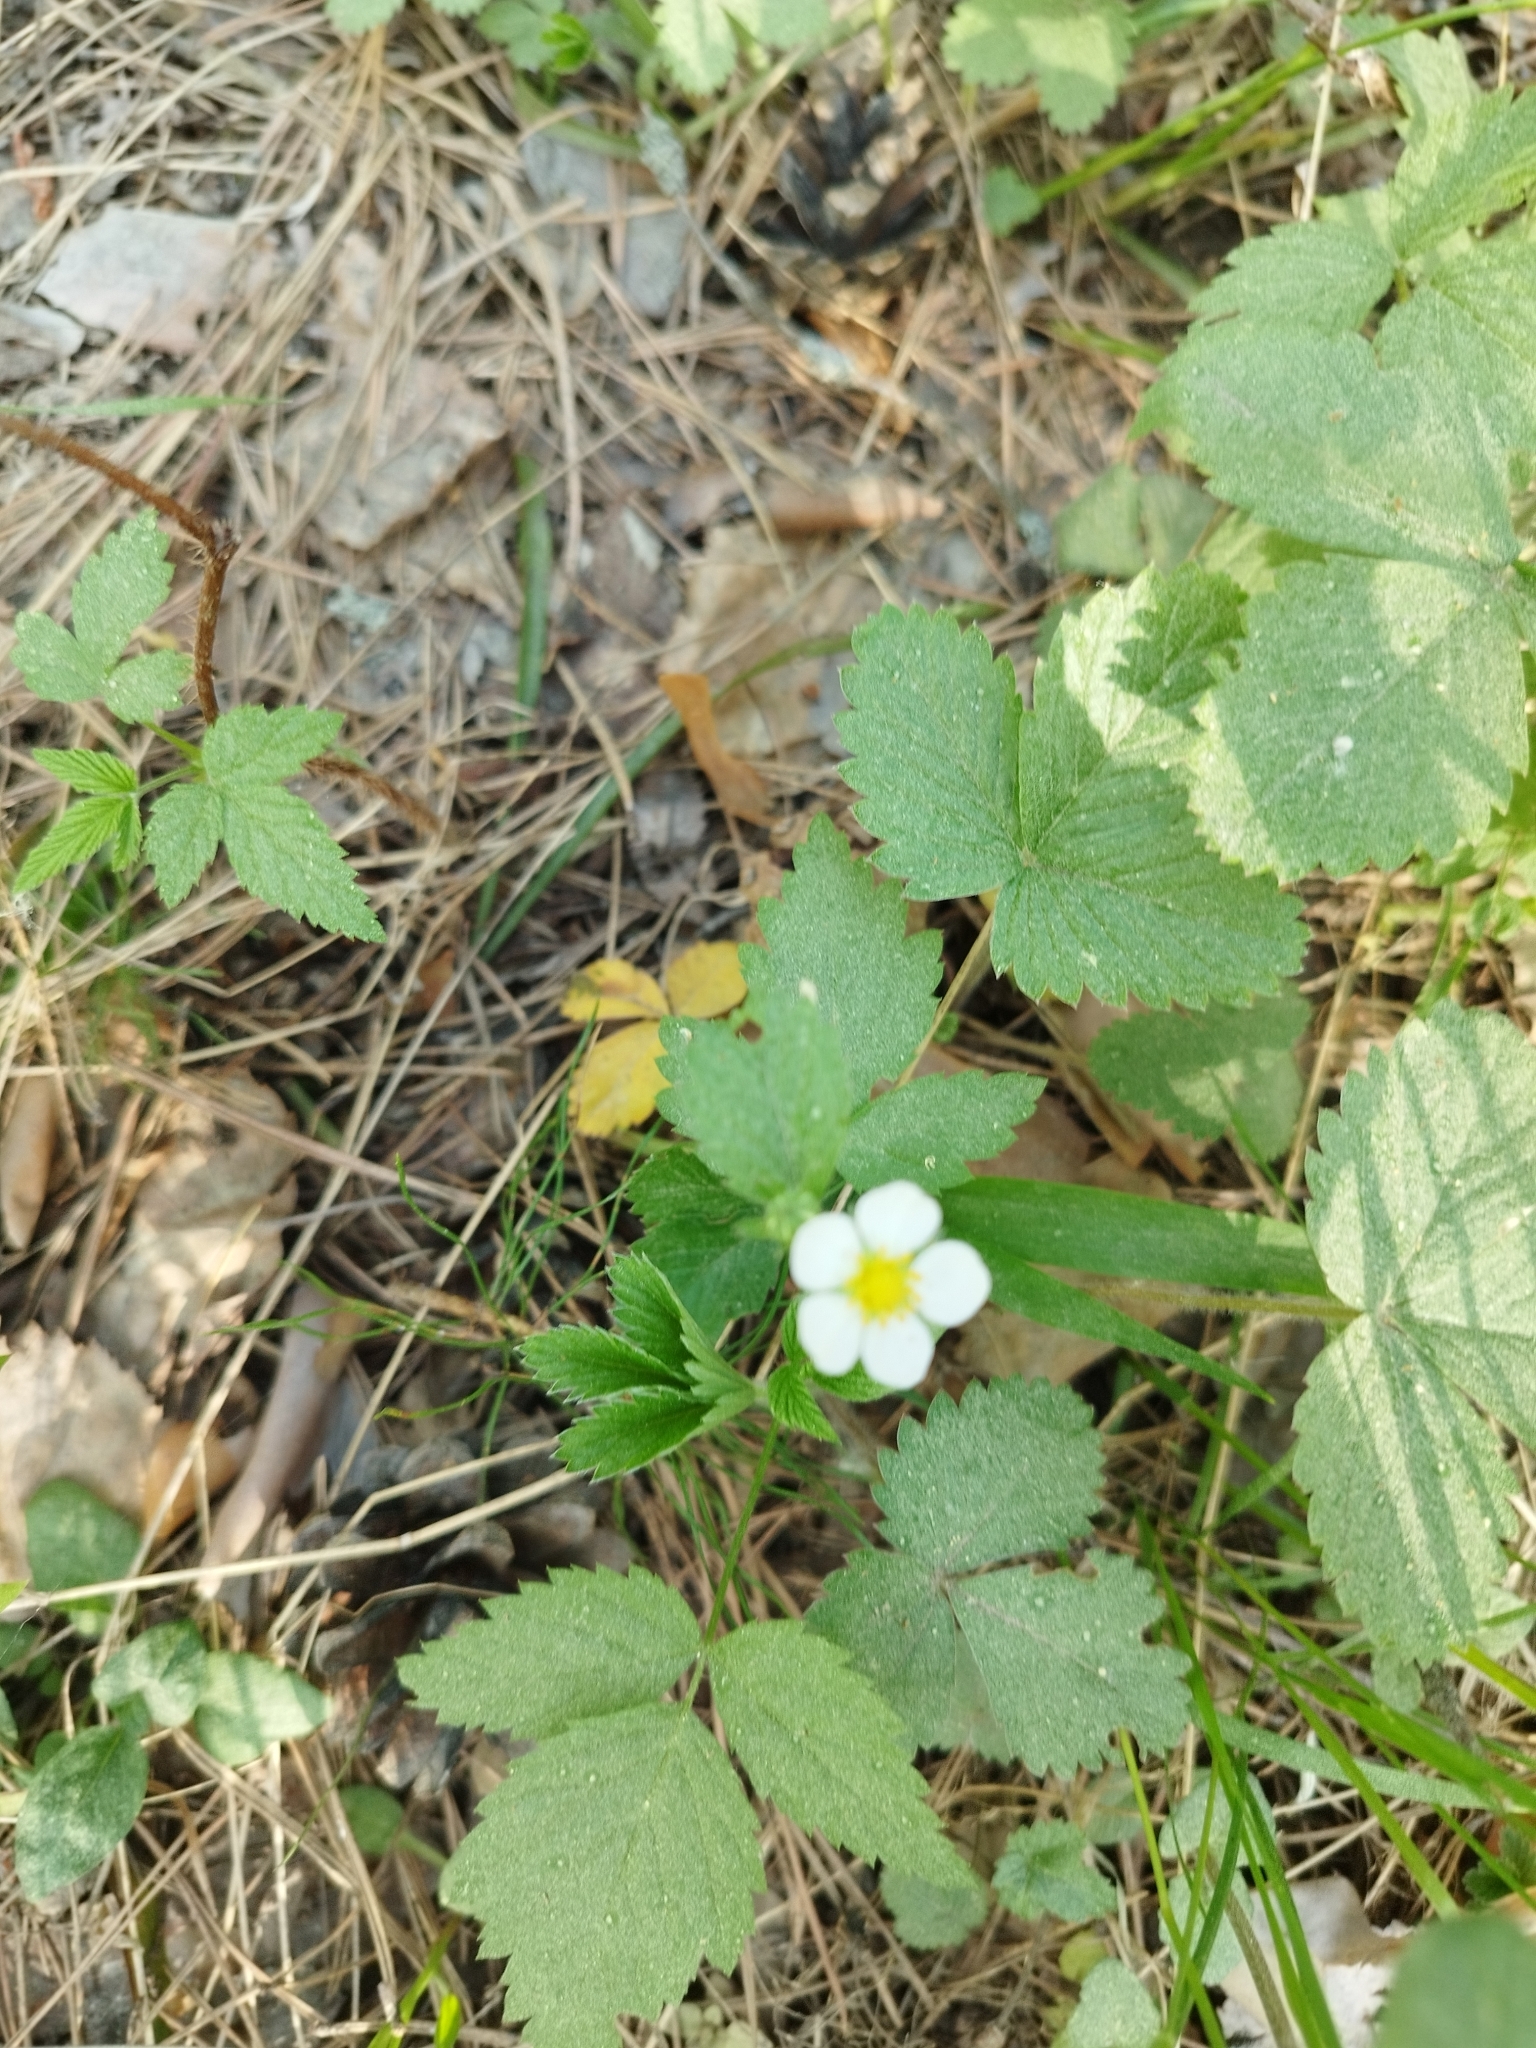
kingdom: Plantae
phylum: Tracheophyta
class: Magnoliopsida
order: Rosales
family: Rosaceae
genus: Fragaria
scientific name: Fragaria vesca
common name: Wild strawberry
